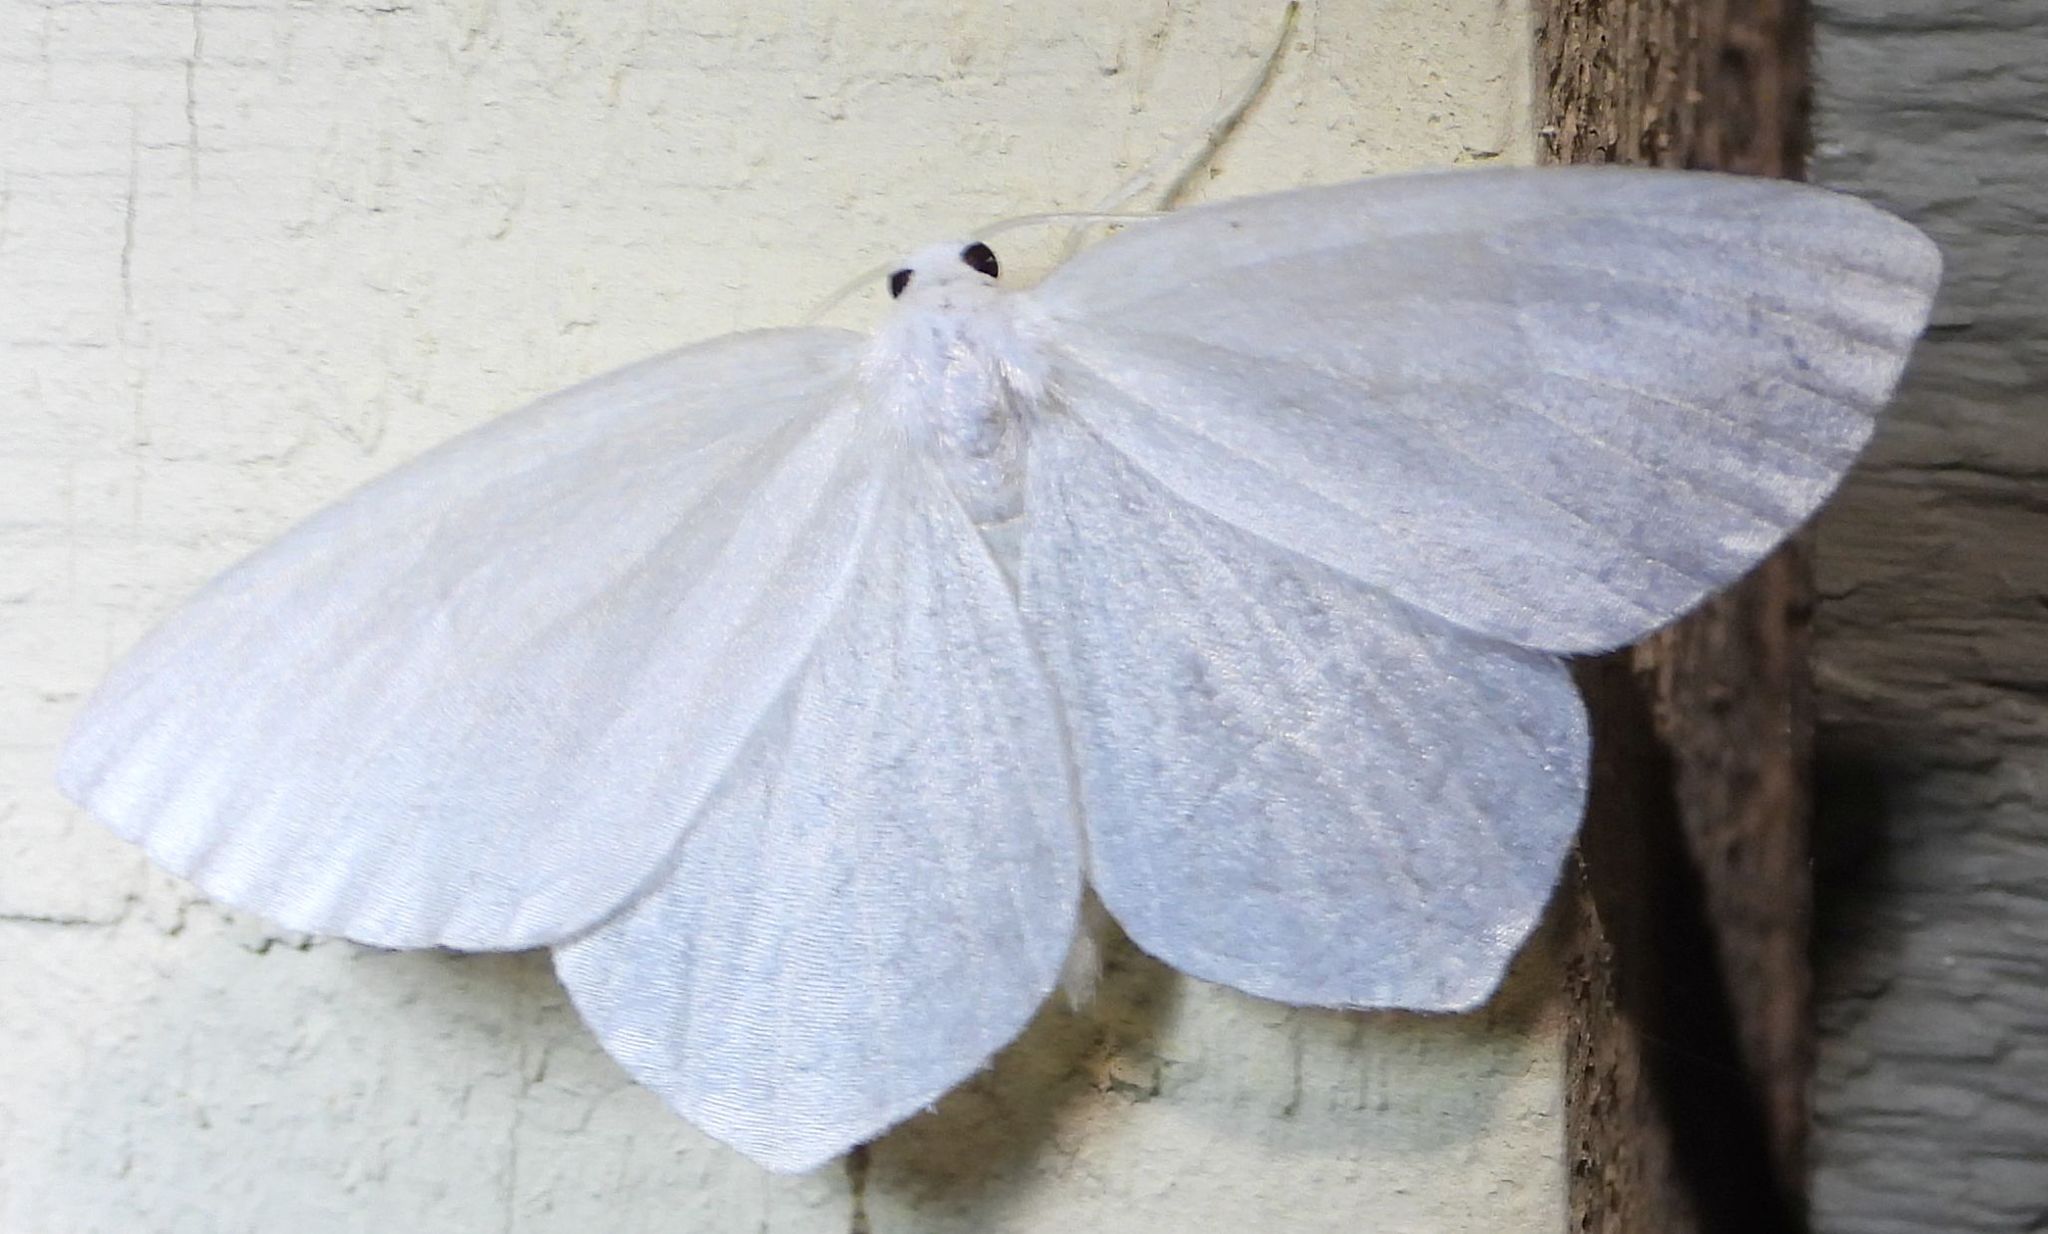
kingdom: Animalia
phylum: Arthropoda
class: Insecta
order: Lepidoptera
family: Geometridae
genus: Eugonobapta
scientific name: Eugonobapta nivosaria
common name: Snowy geometer
